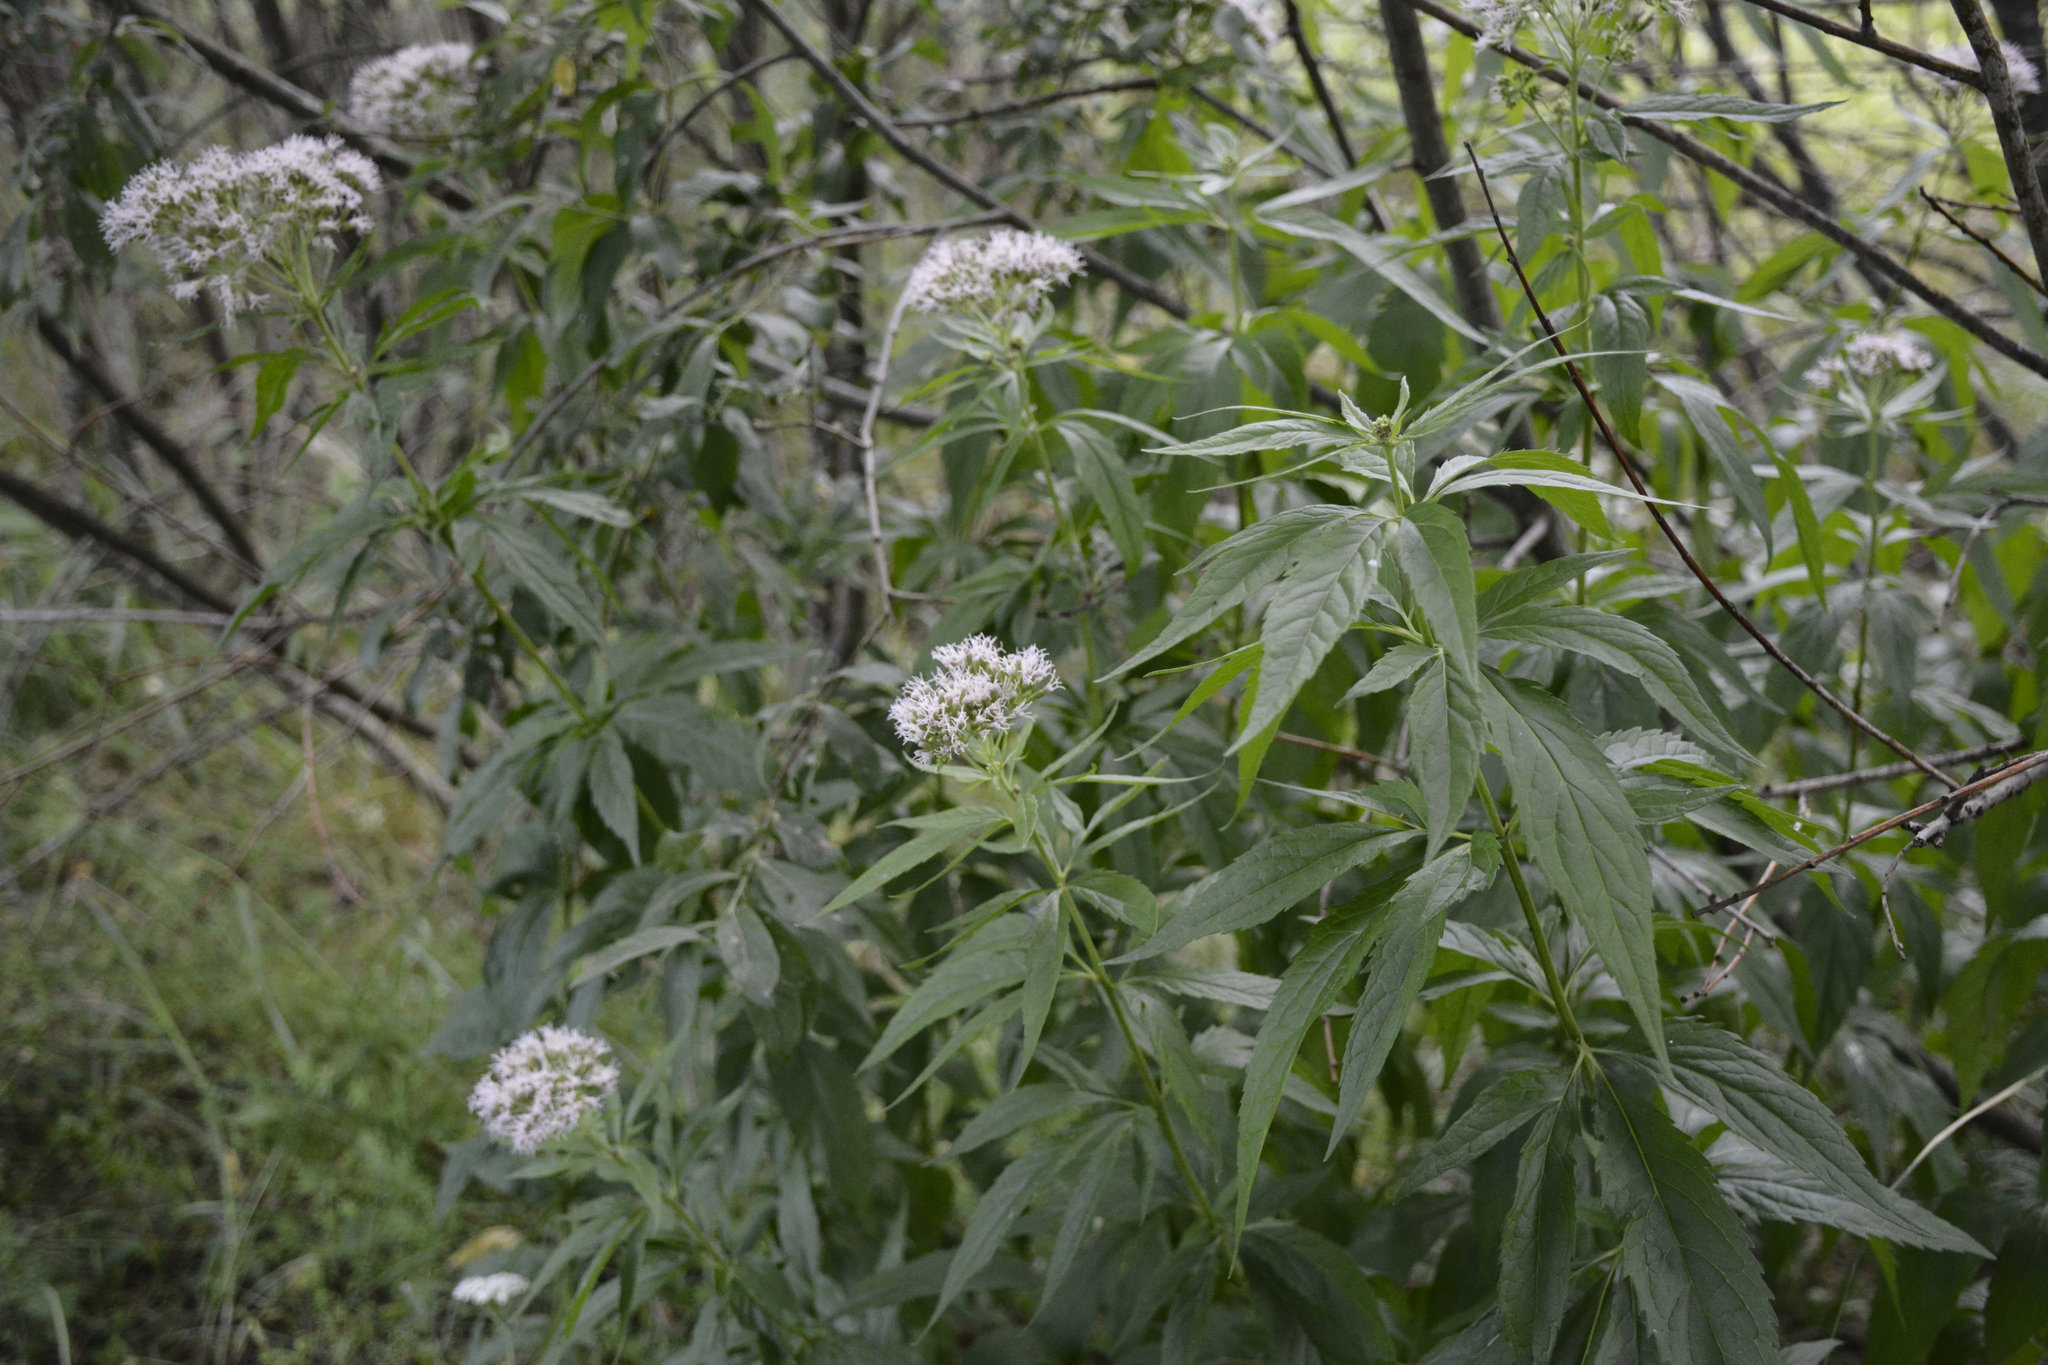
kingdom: Plantae
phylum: Tracheophyta
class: Magnoliopsida
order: Asterales
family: Asteraceae
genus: Eupatorium
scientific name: Eupatorium cannabinum
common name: Hemp-agrimony
